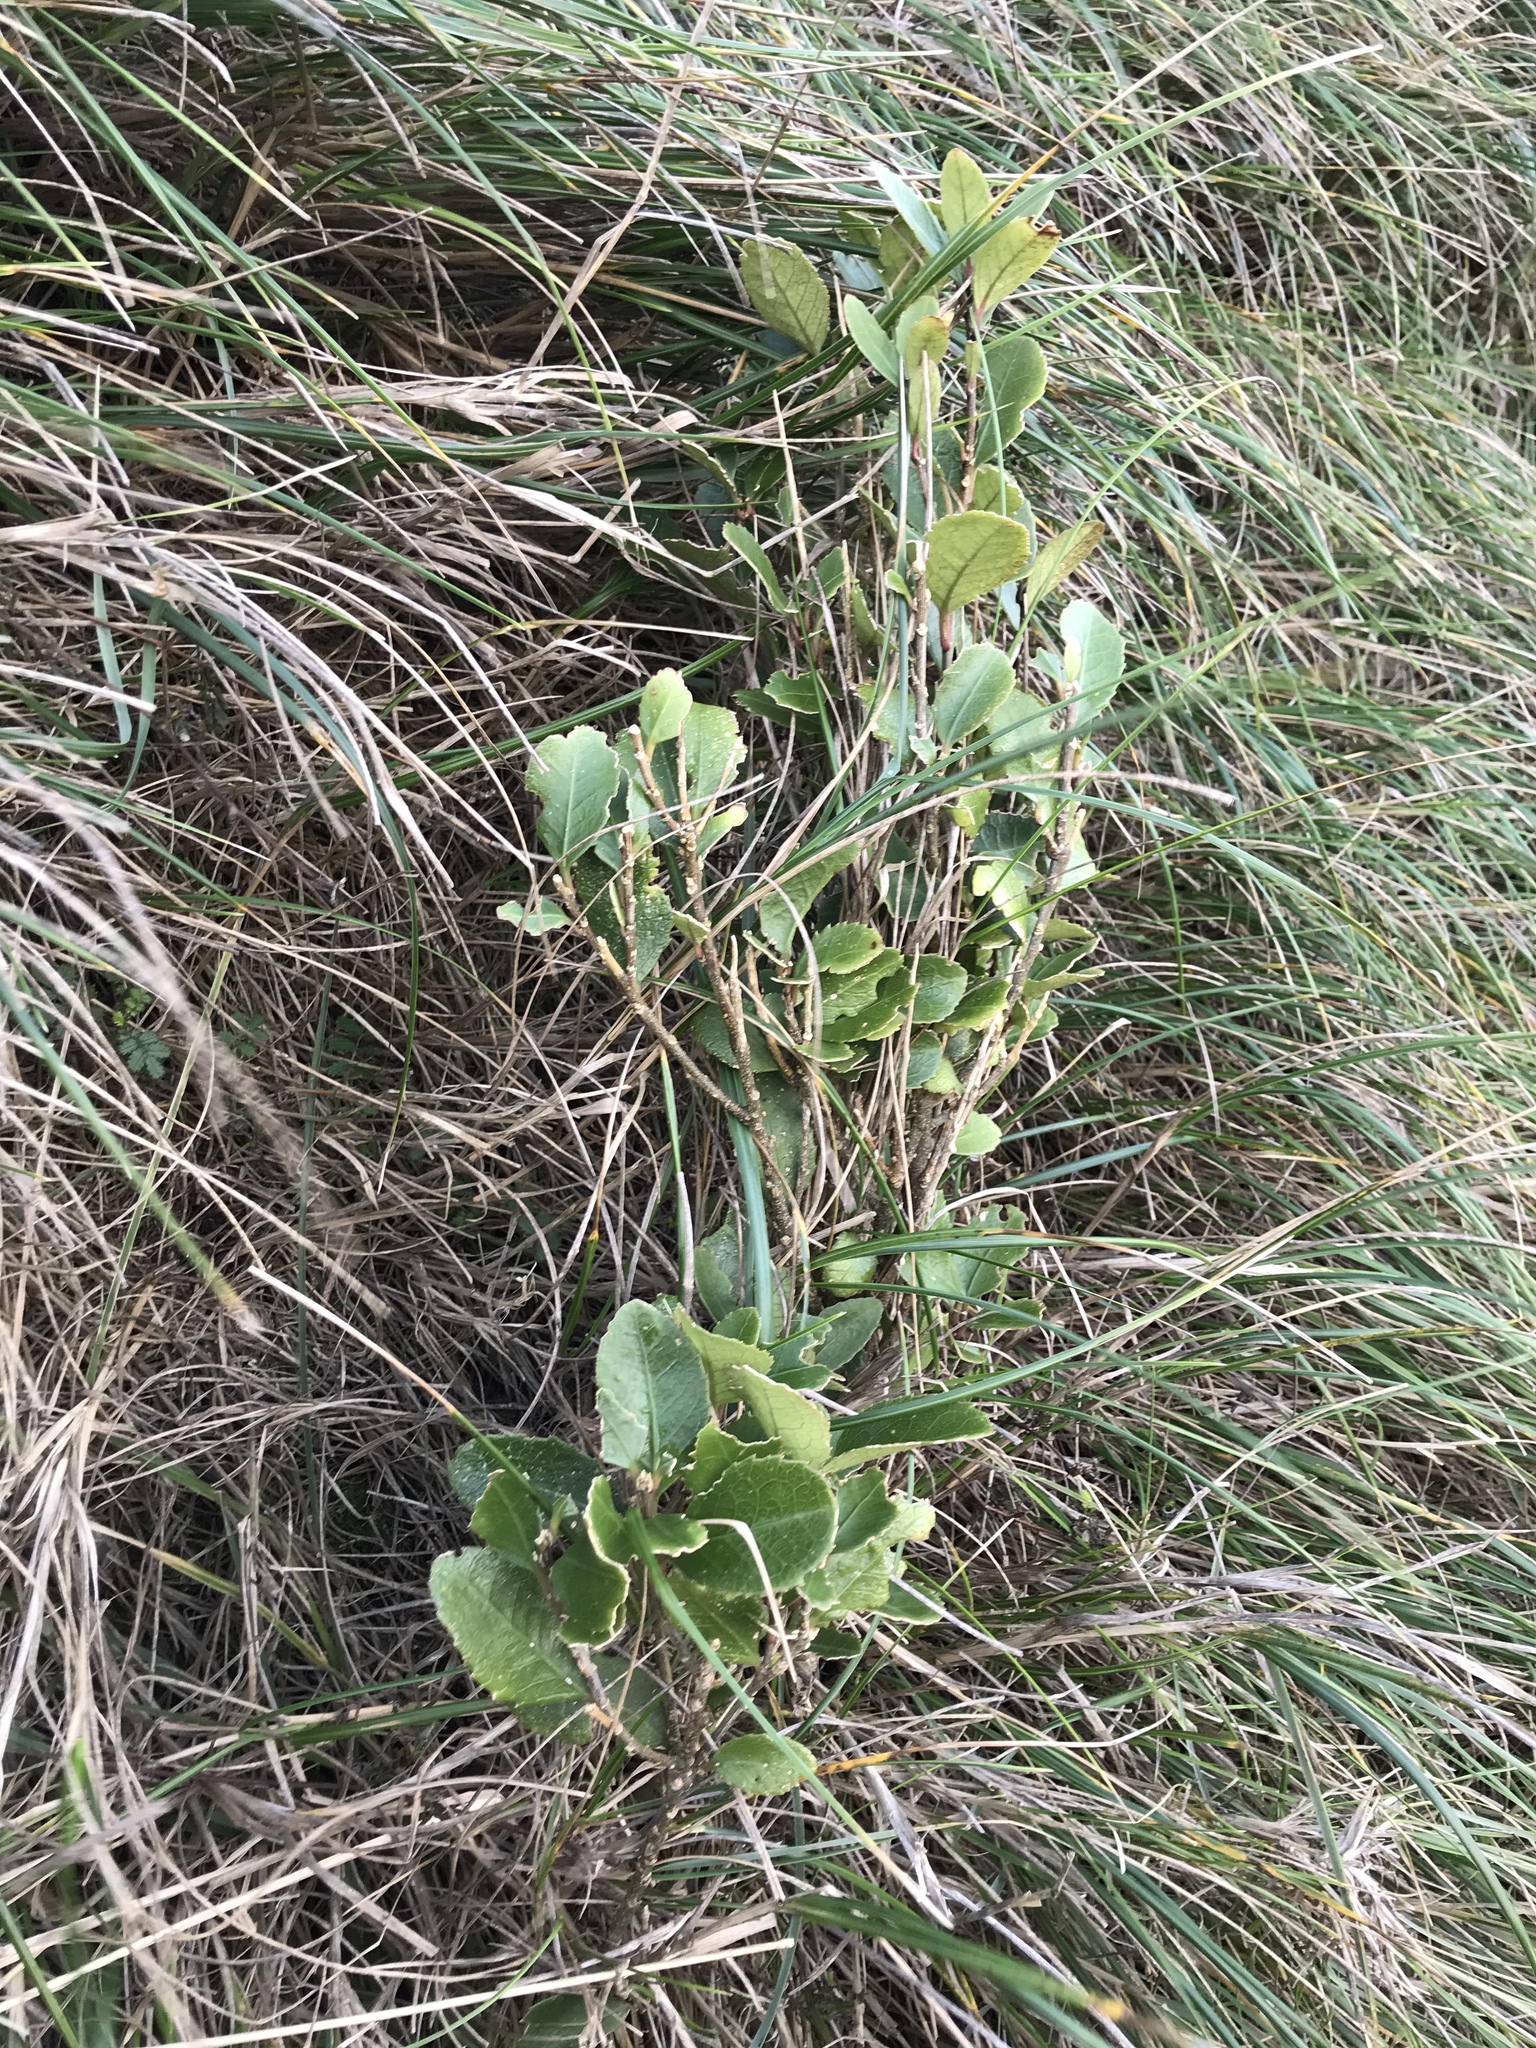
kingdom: Plantae
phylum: Tracheophyta
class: Magnoliopsida
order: Malpighiales
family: Violaceae
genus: Melicytus
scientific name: Melicytus chathamicus
